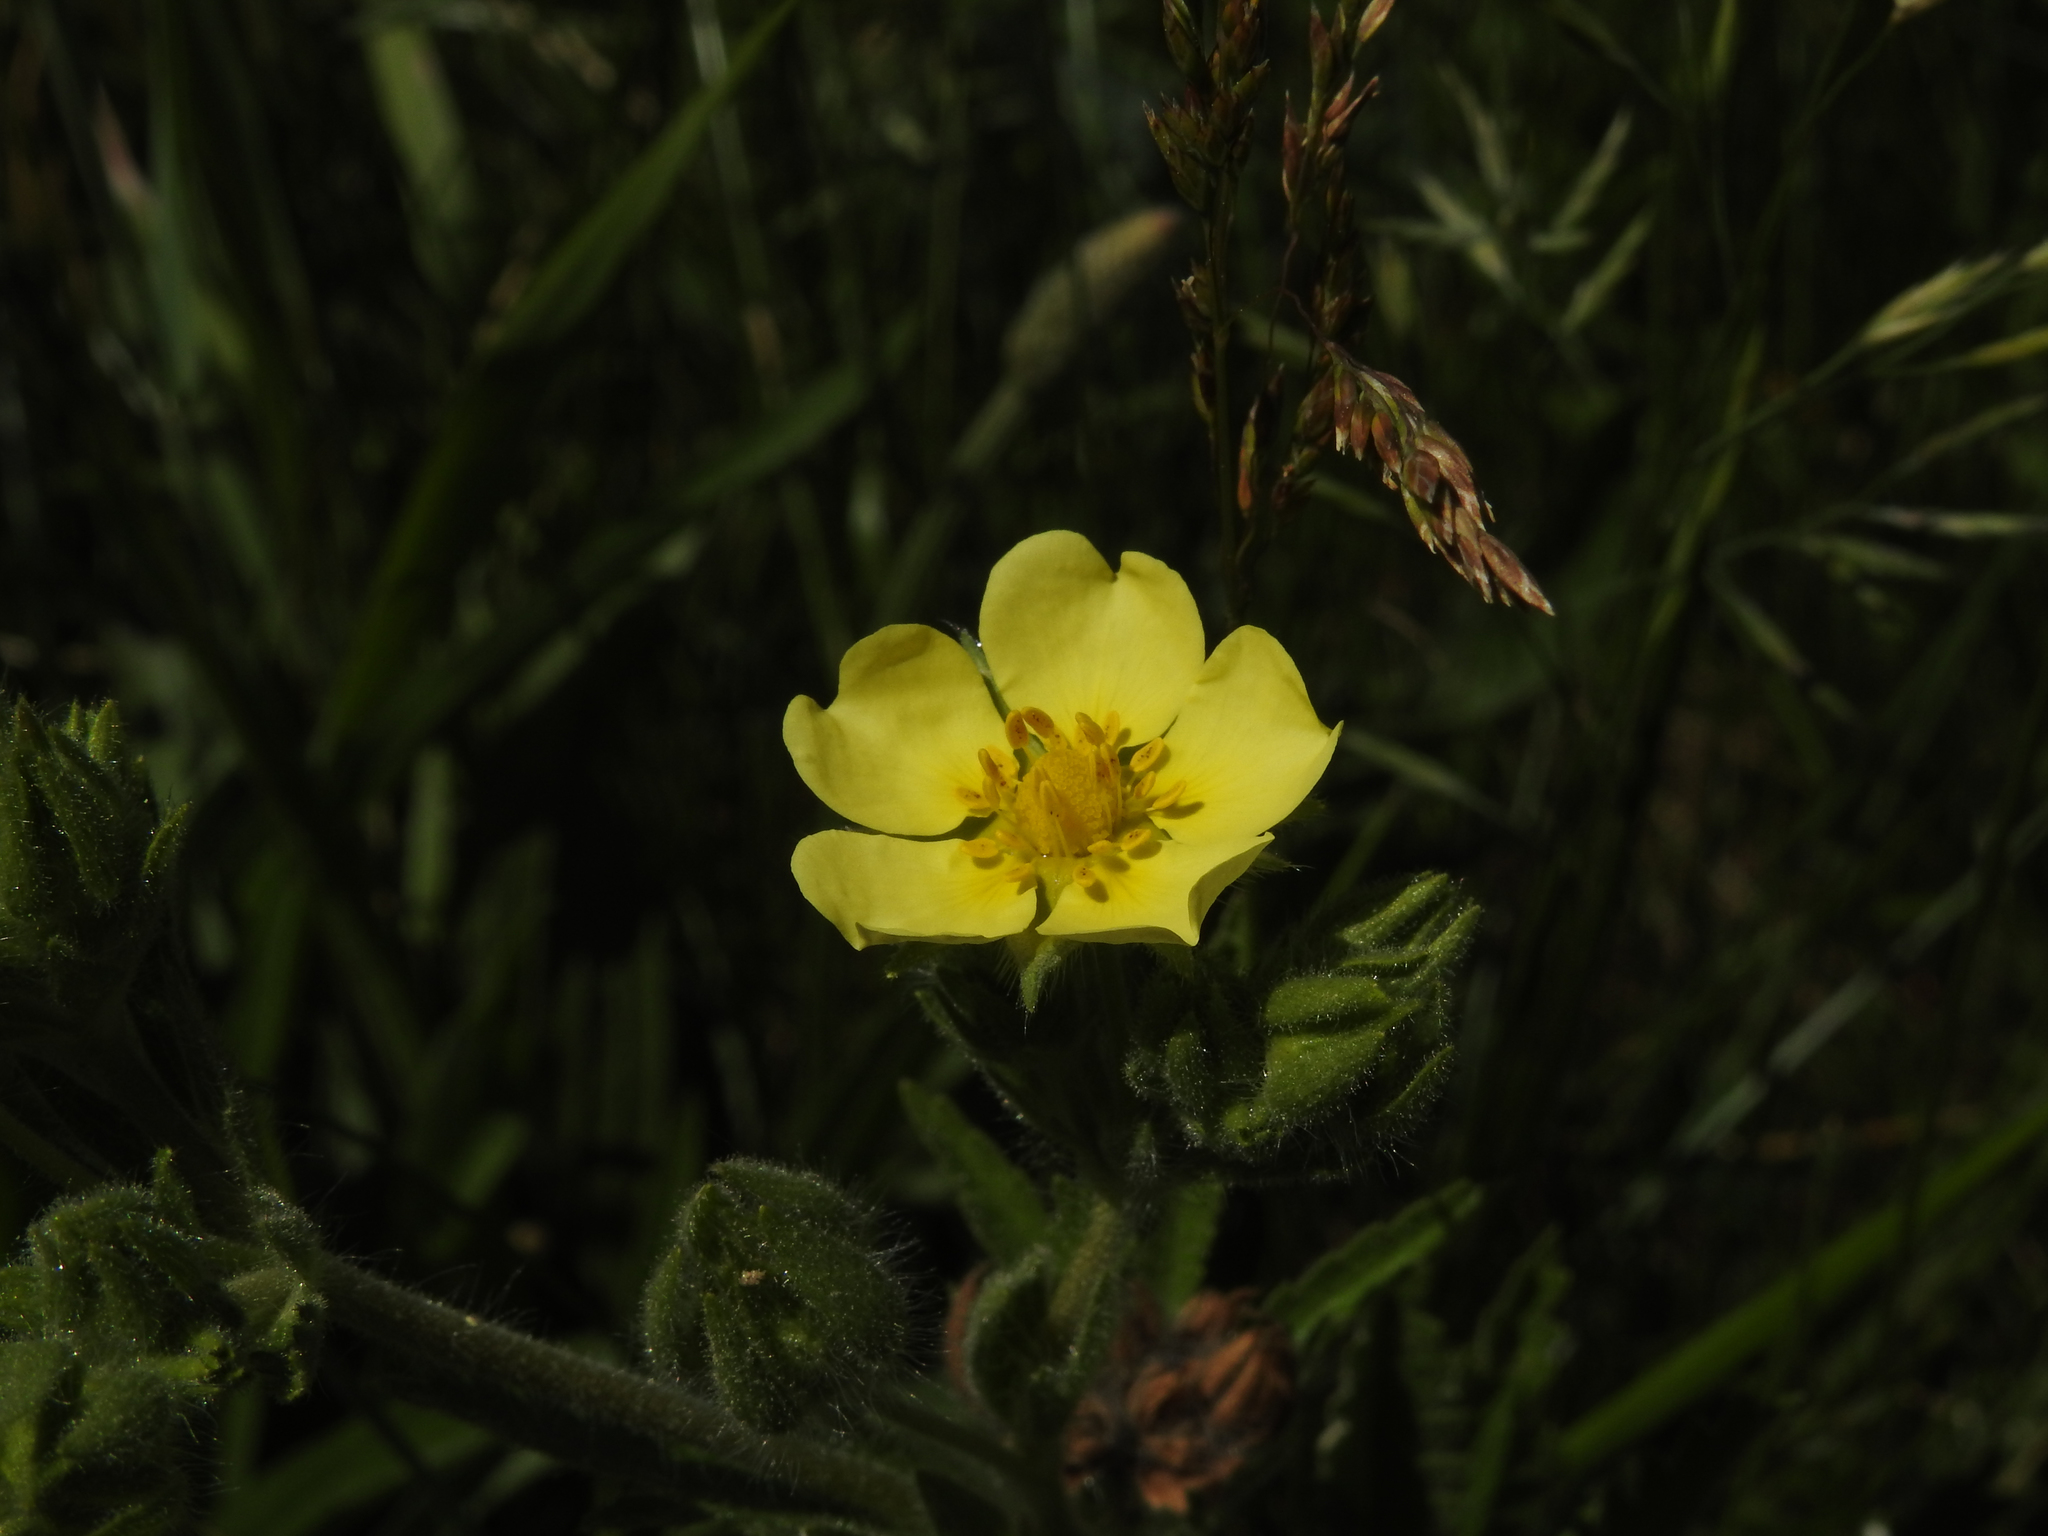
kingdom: Plantae
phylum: Tracheophyta
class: Magnoliopsida
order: Rosales
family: Rosaceae
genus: Potentilla
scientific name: Potentilla recta
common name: Sulphur cinquefoil
